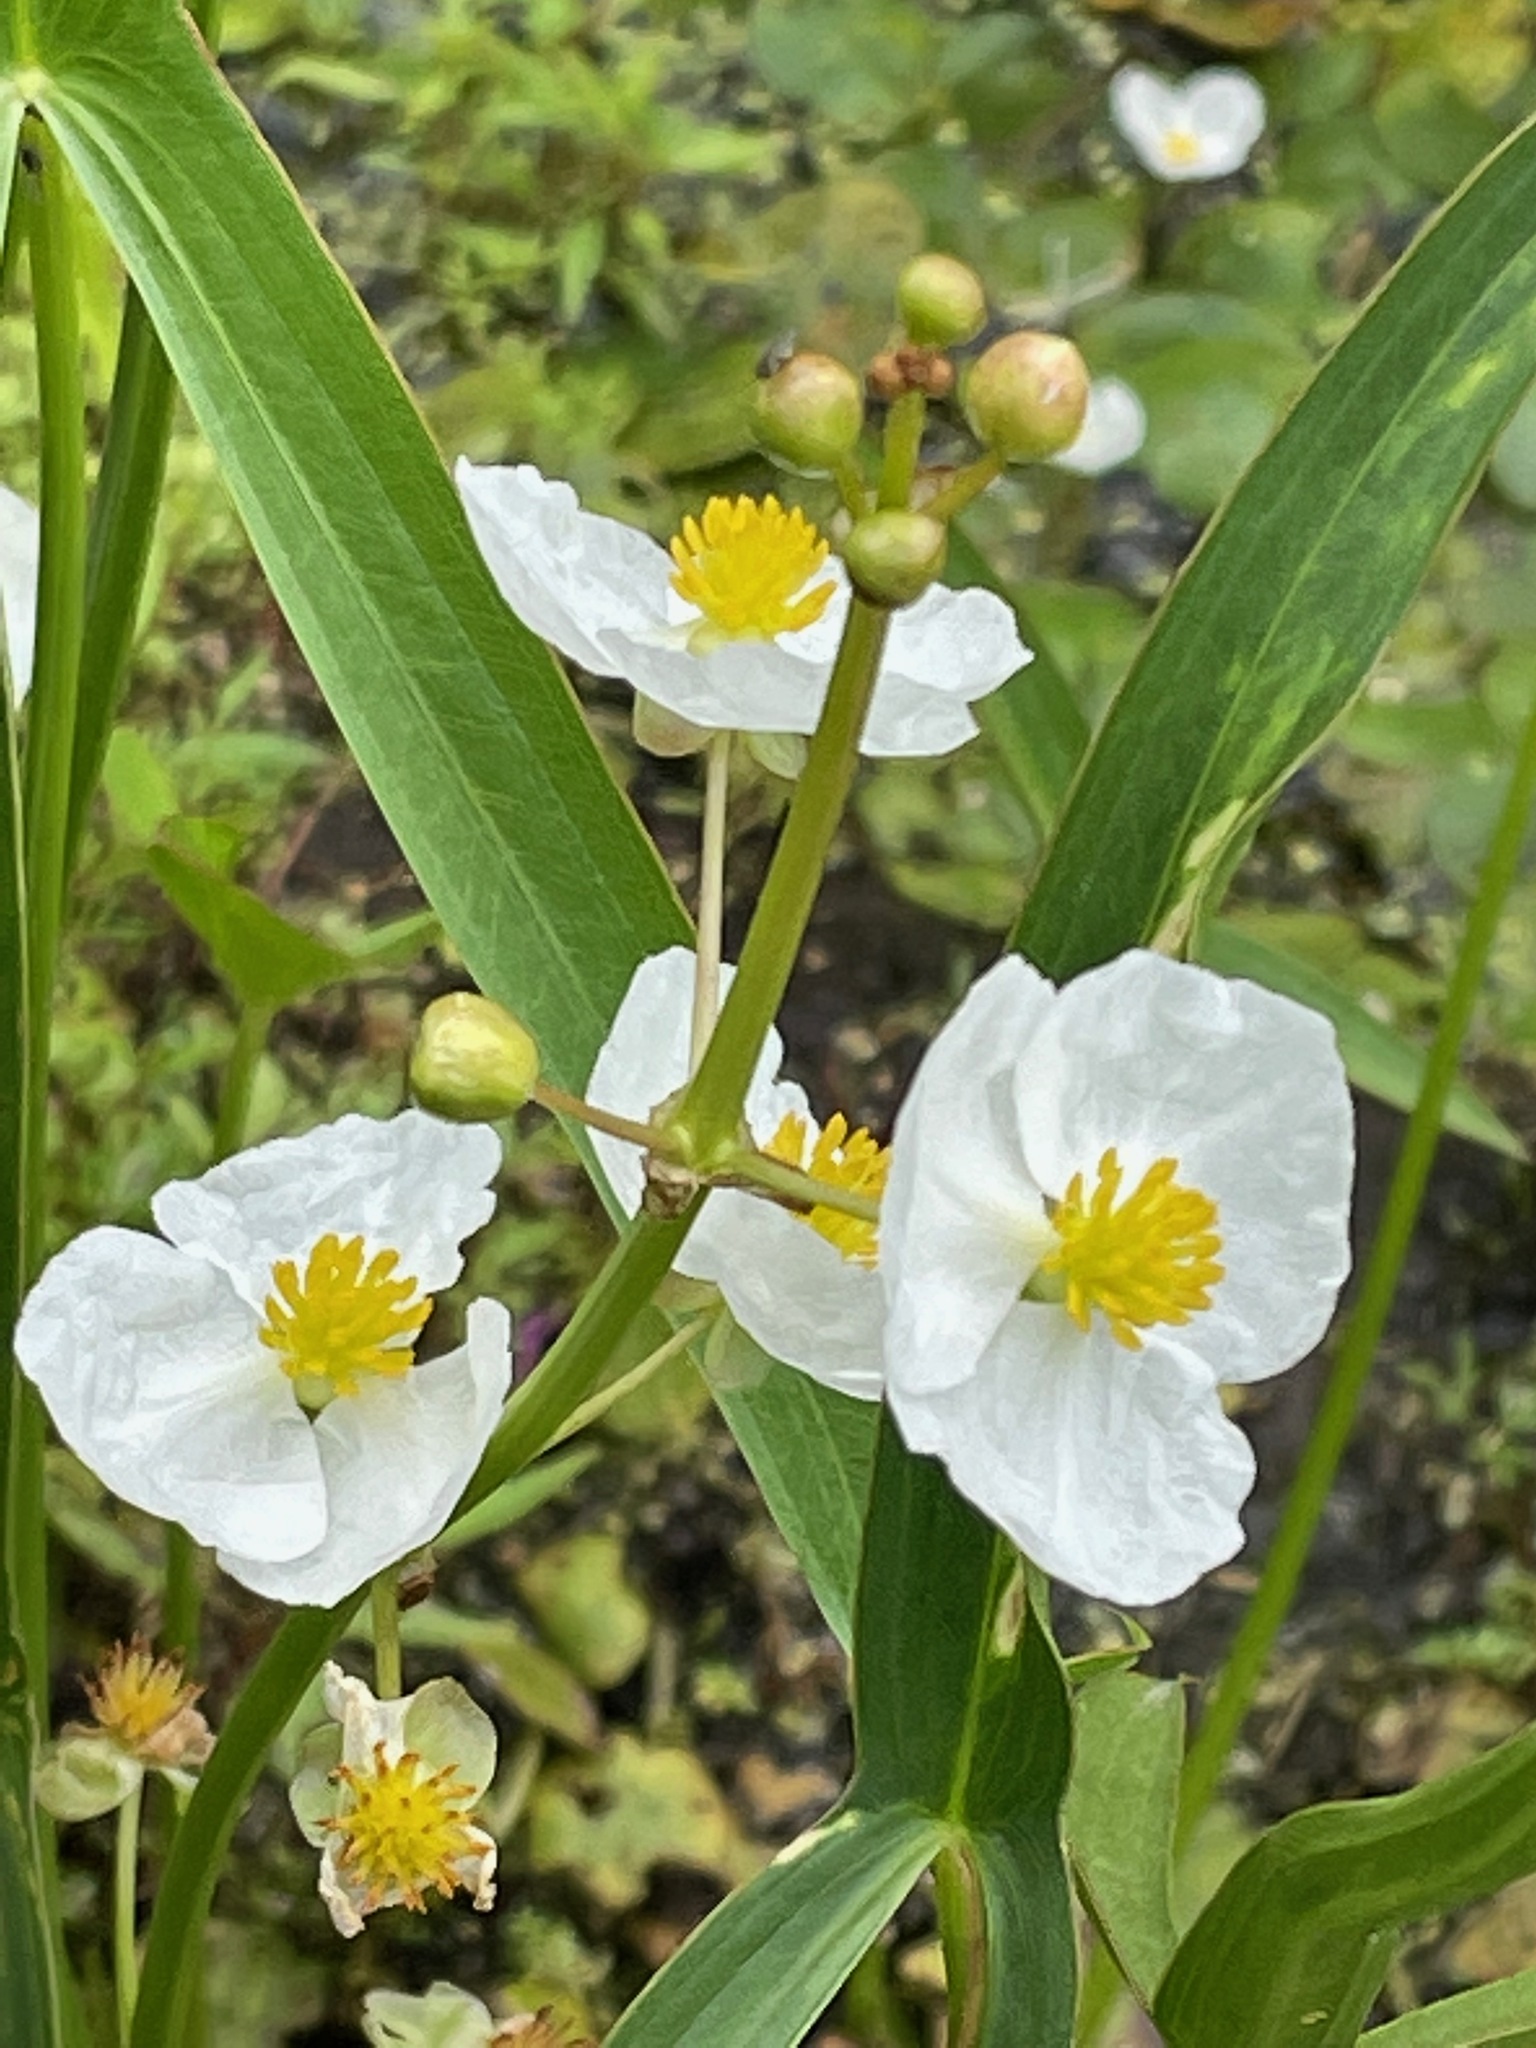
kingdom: Plantae
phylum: Tracheophyta
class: Liliopsida
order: Alismatales
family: Alismataceae
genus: Sagittaria
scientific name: Sagittaria latifolia
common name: Duck-potato
